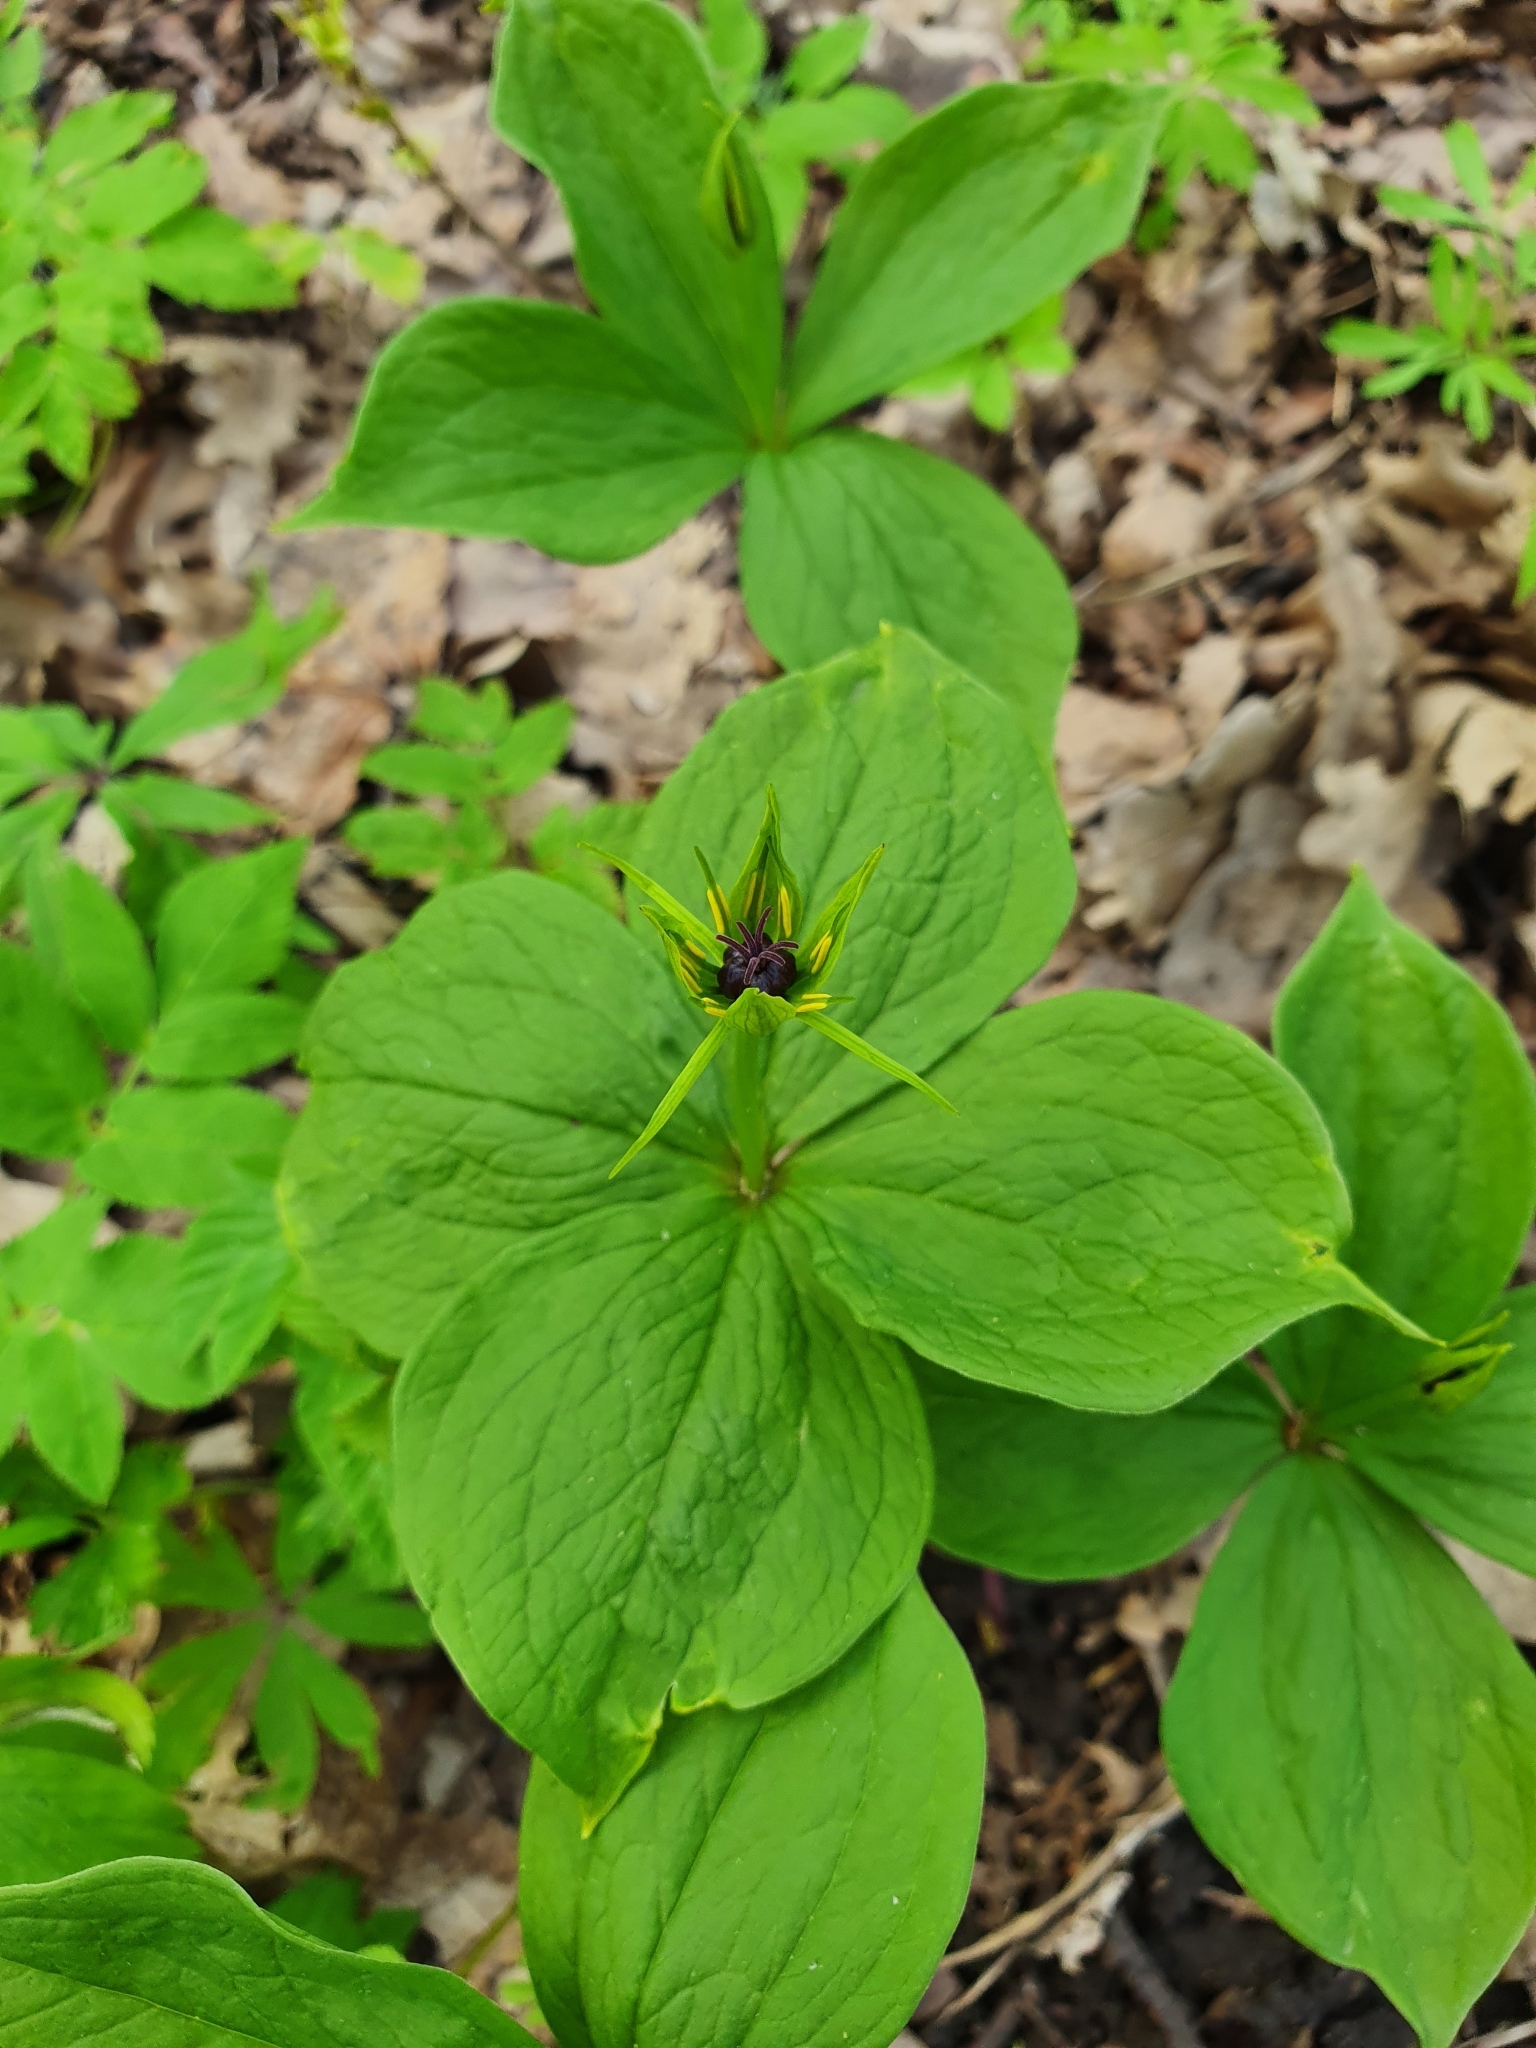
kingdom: Plantae
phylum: Tracheophyta
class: Liliopsida
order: Liliales
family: Melanthiaceae
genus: Paris
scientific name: Paris quadrifolia
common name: Herb-paris
